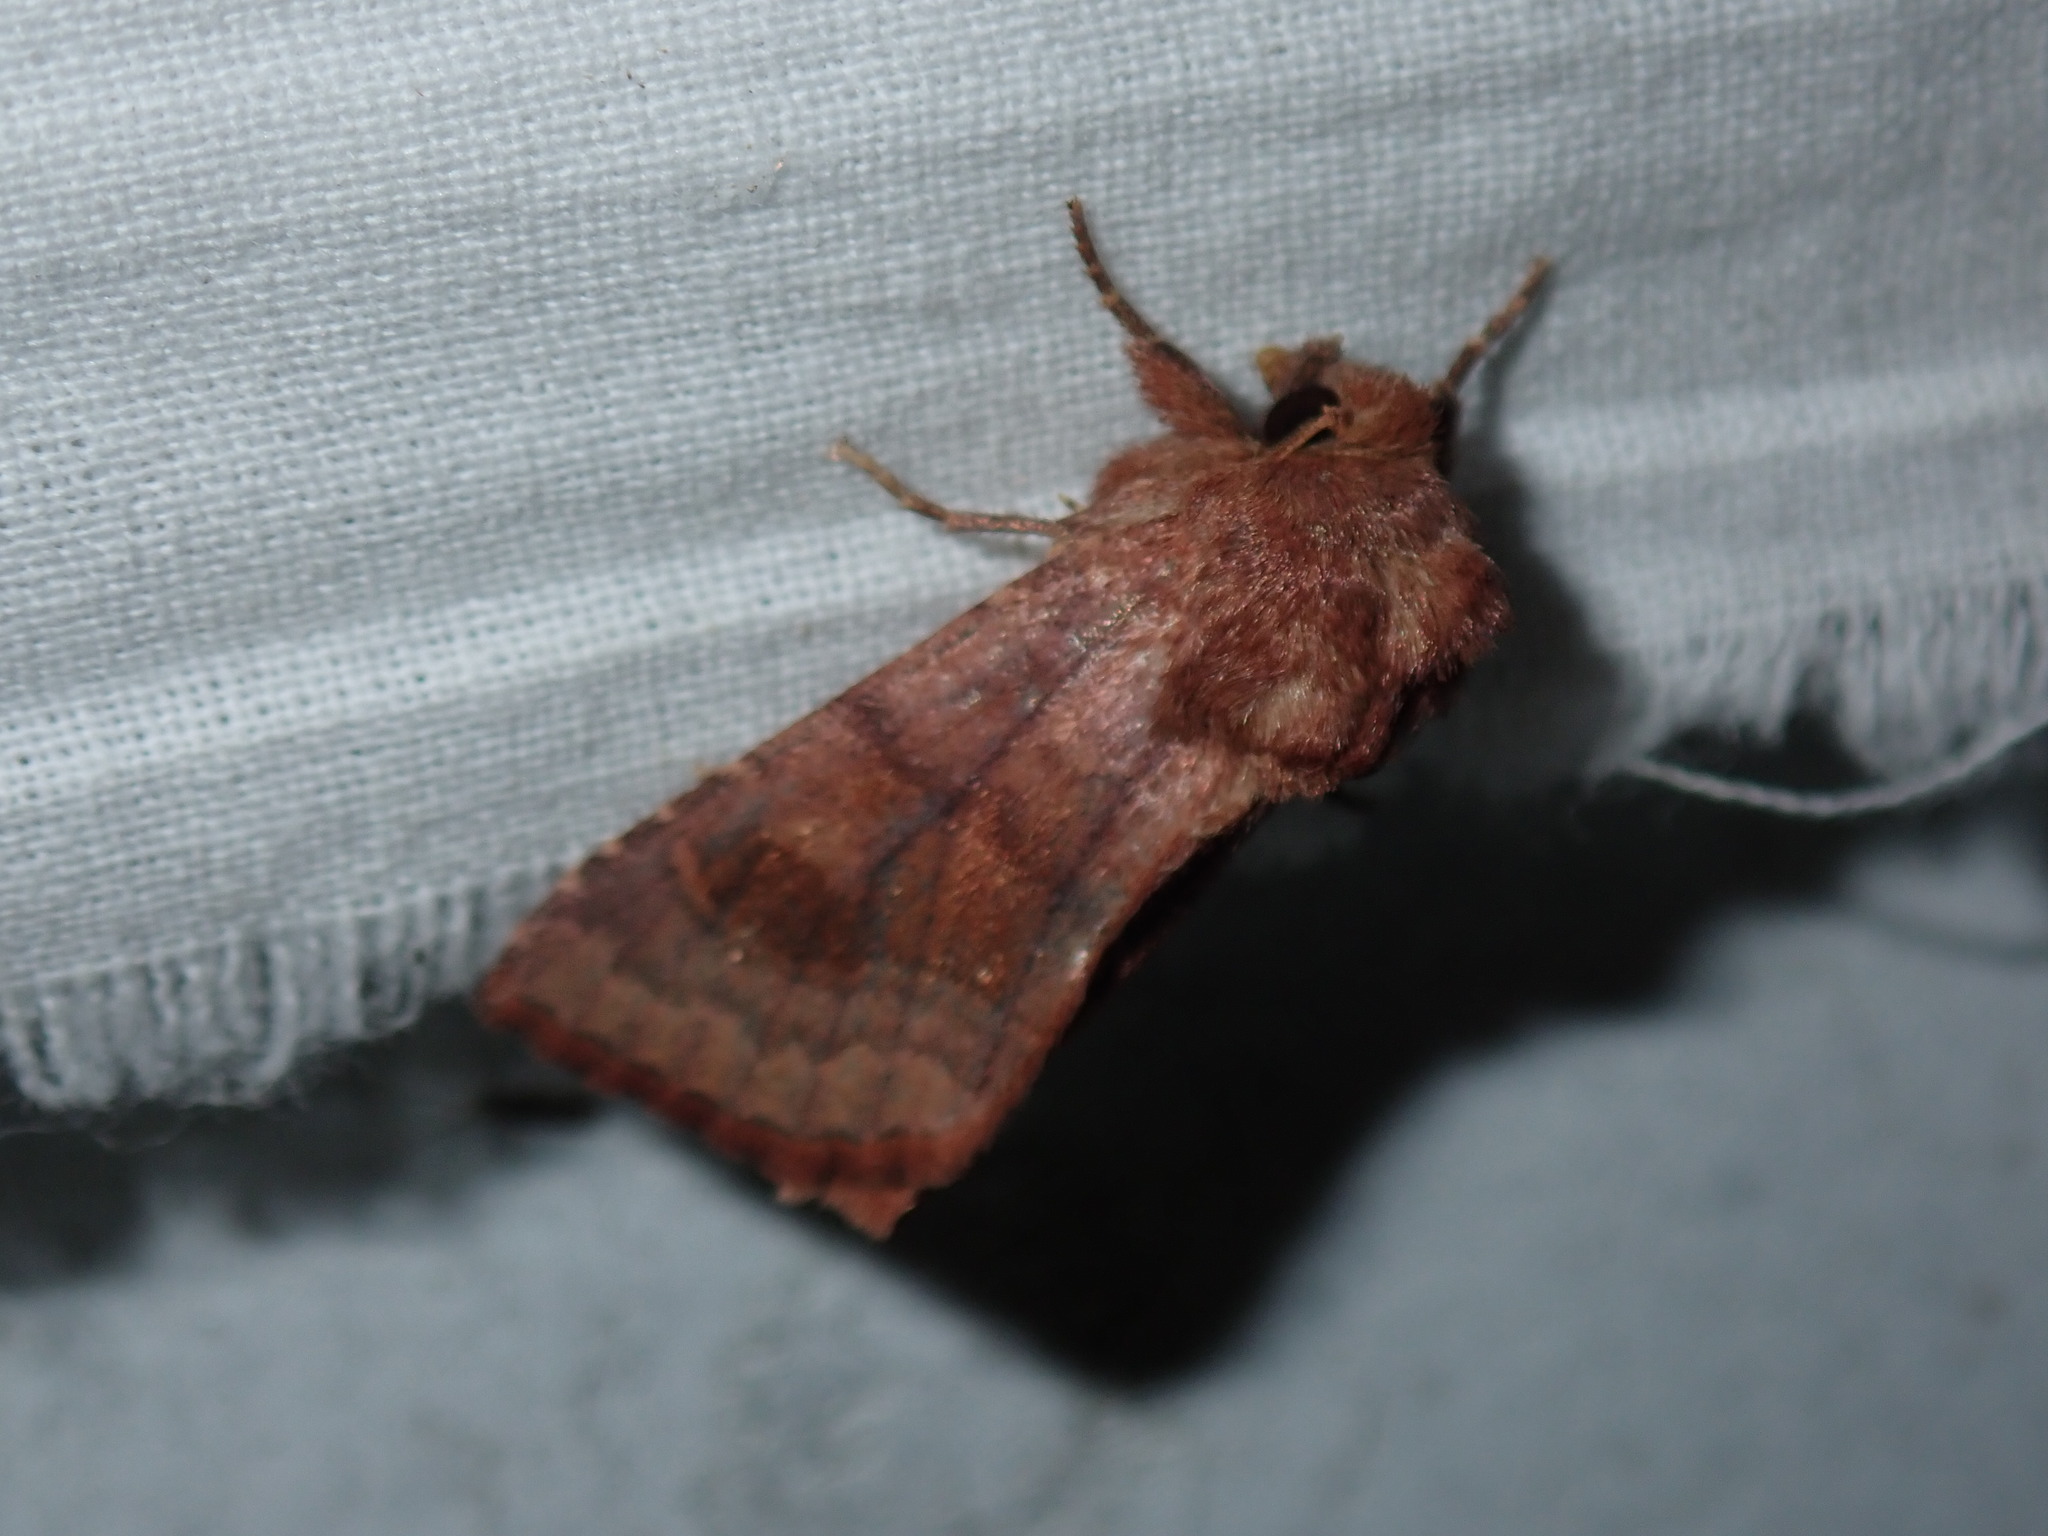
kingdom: Animalia
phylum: Arthropoda
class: Insecta
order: Lepidoptera
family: Noctuidae
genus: Nephelodes
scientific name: Nephelodes minians
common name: Bronzed cutworm
